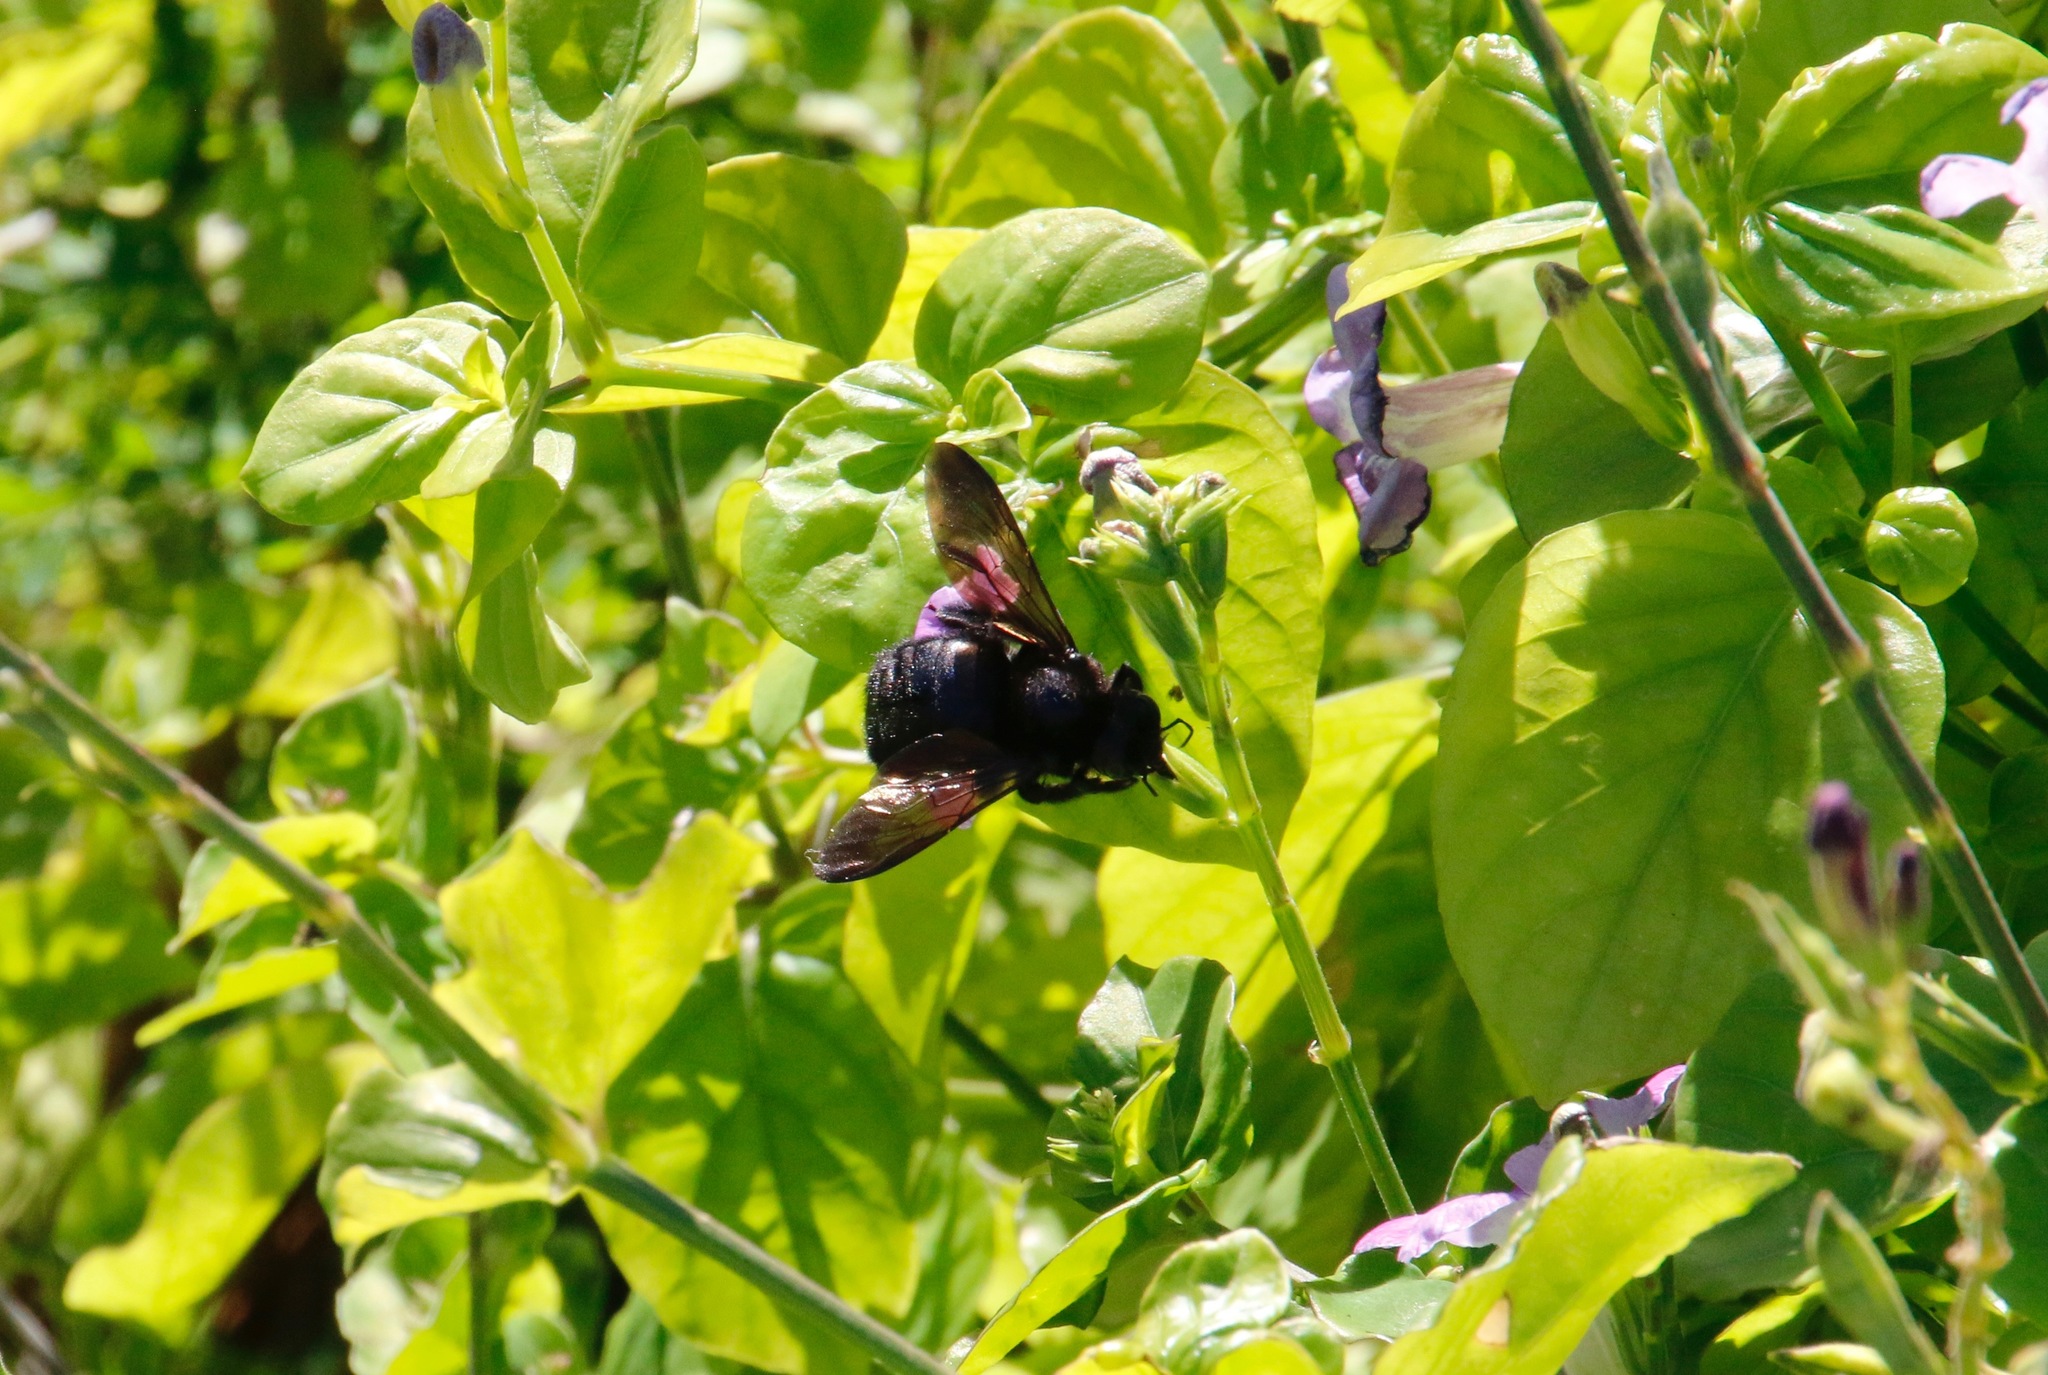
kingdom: Animalia
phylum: Arthropoda
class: Insecta
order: Hymenoptera
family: Apidae
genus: Xylocopa
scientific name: Xylocopa sonorina
